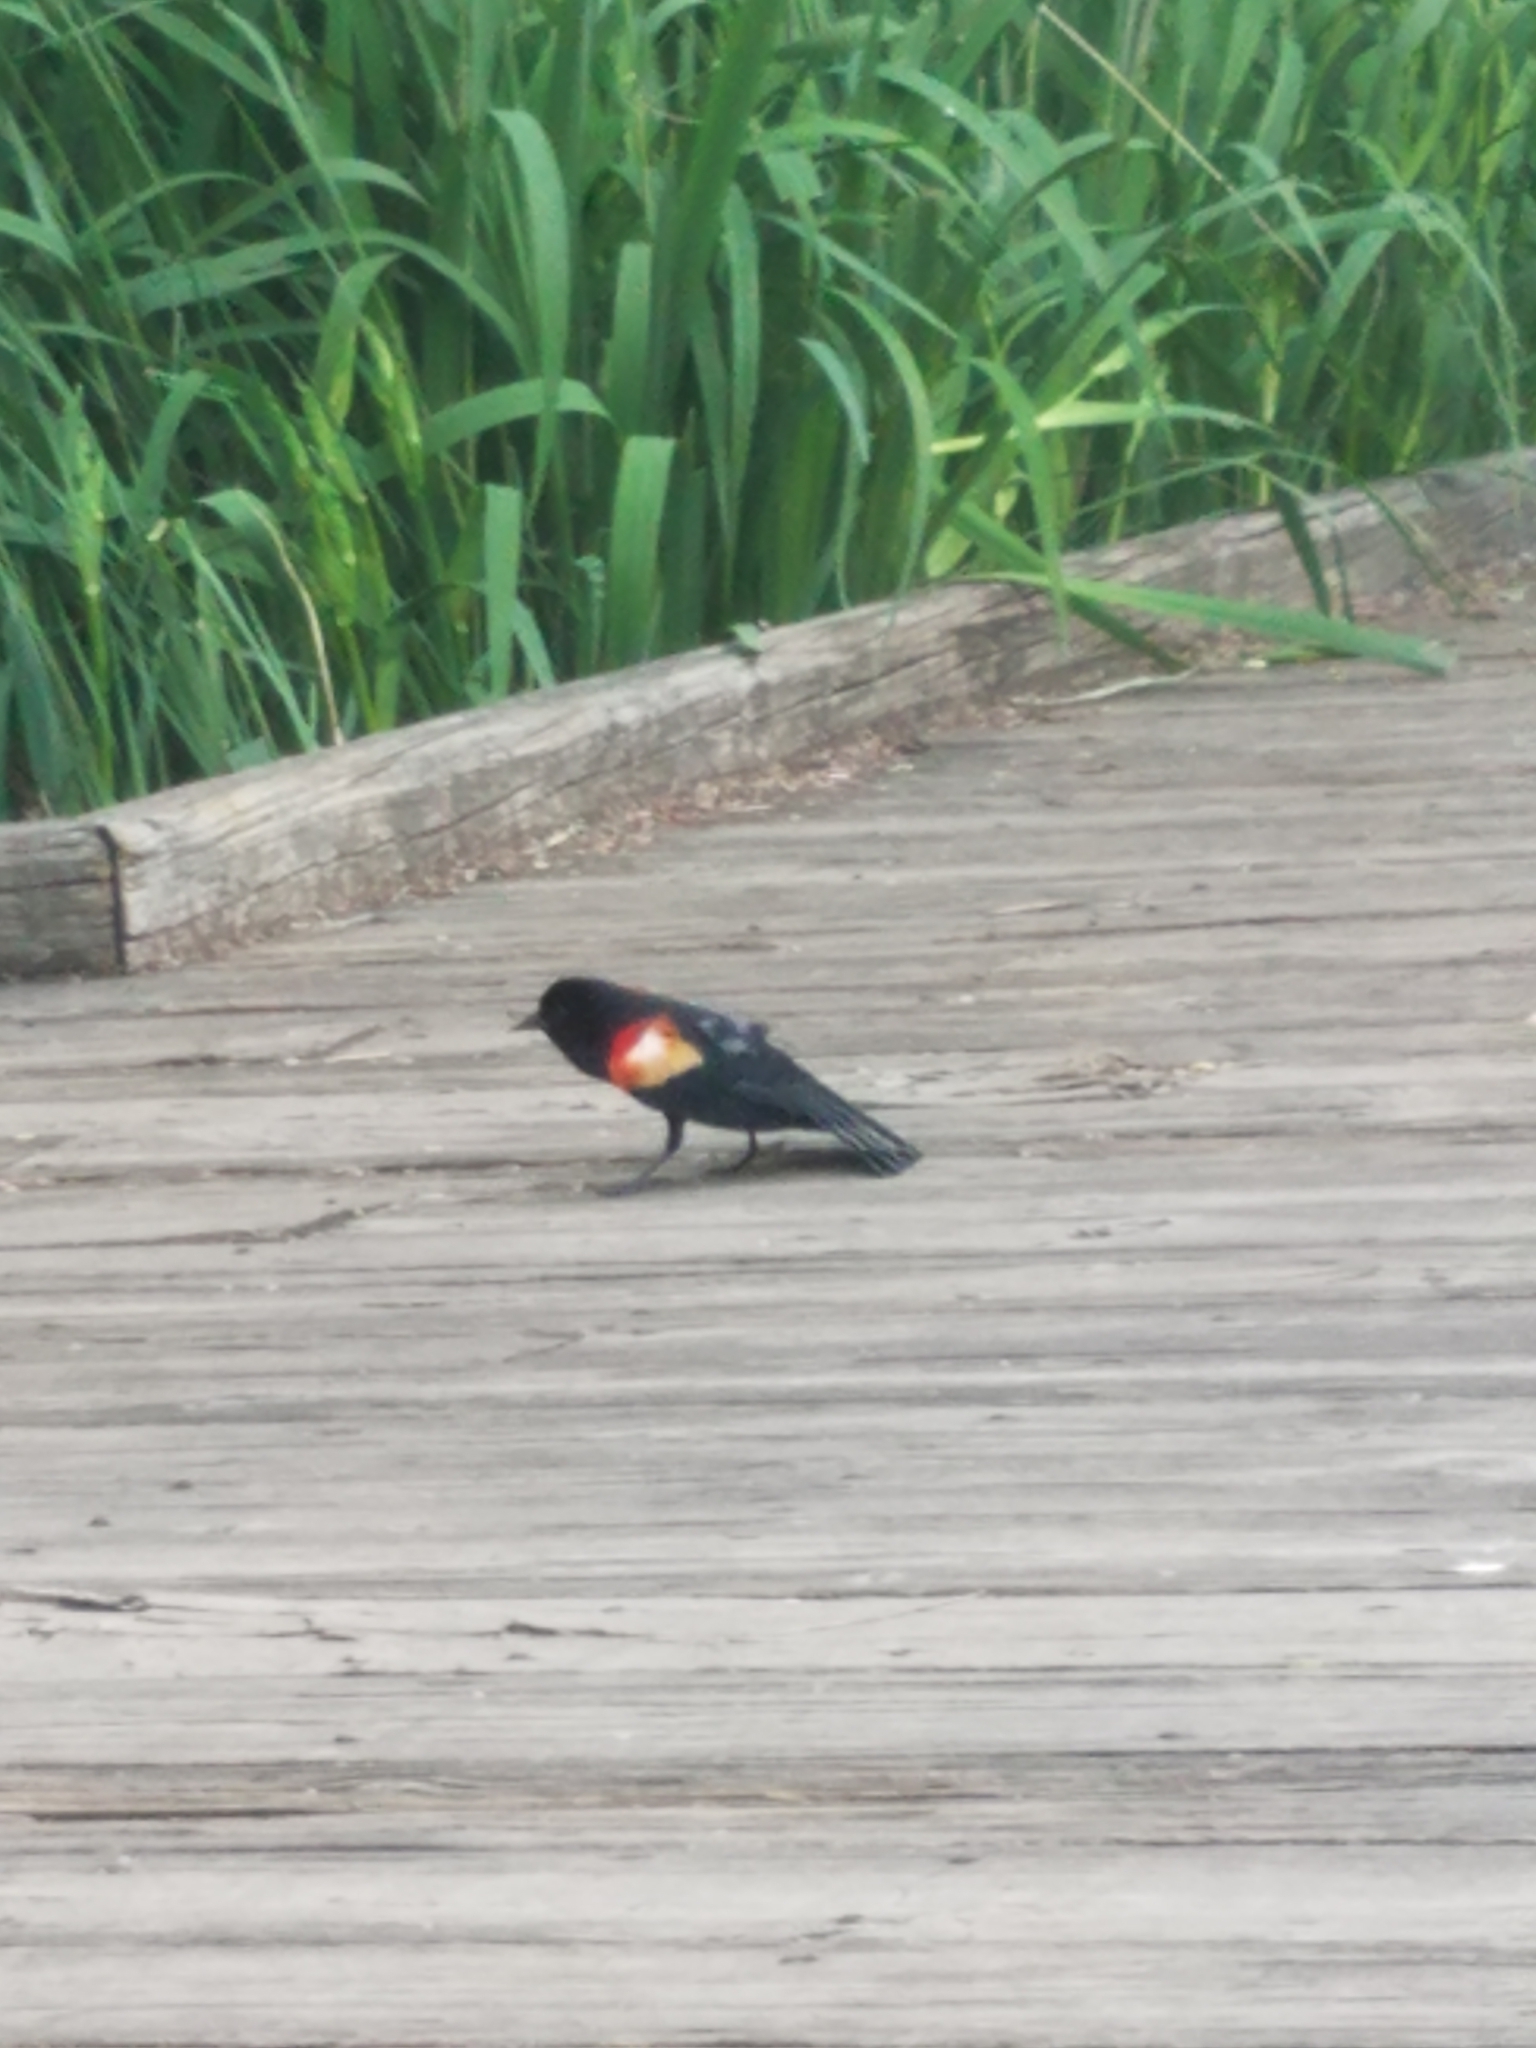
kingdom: Animalia
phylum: Chordata
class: Aves
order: Passeriformes
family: Icteridae
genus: Agelaius
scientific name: Agelaius phoeniceus
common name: Red-winged blackbird
